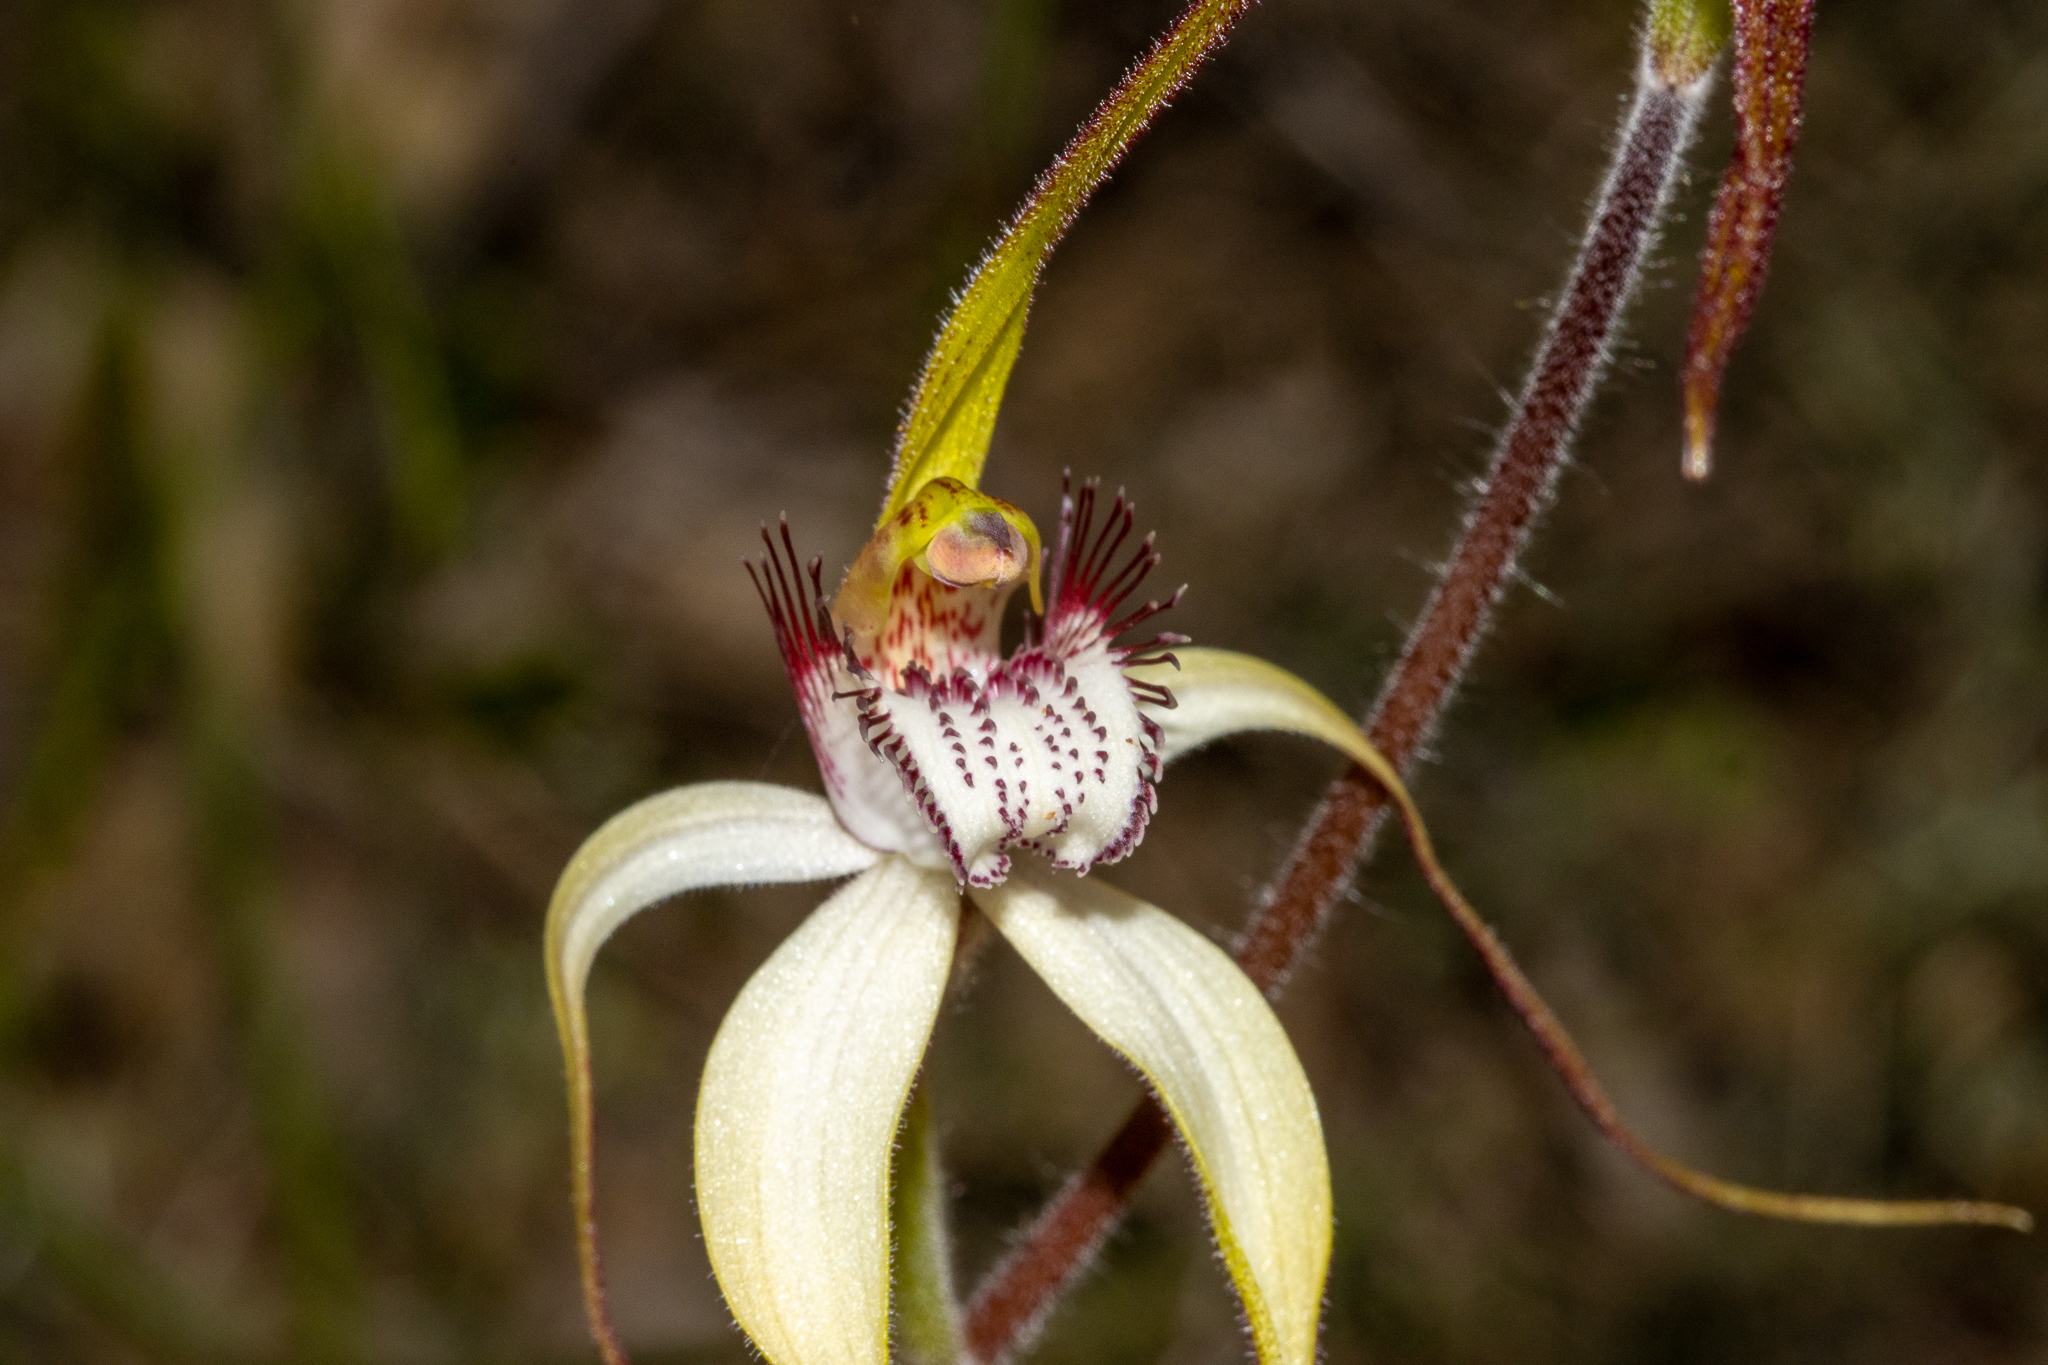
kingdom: Plantae
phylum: Tracheophyta
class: Liliopsida
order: Asparagales
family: Orchidaceae
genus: Caladenia
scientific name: Caladenia longicauda
